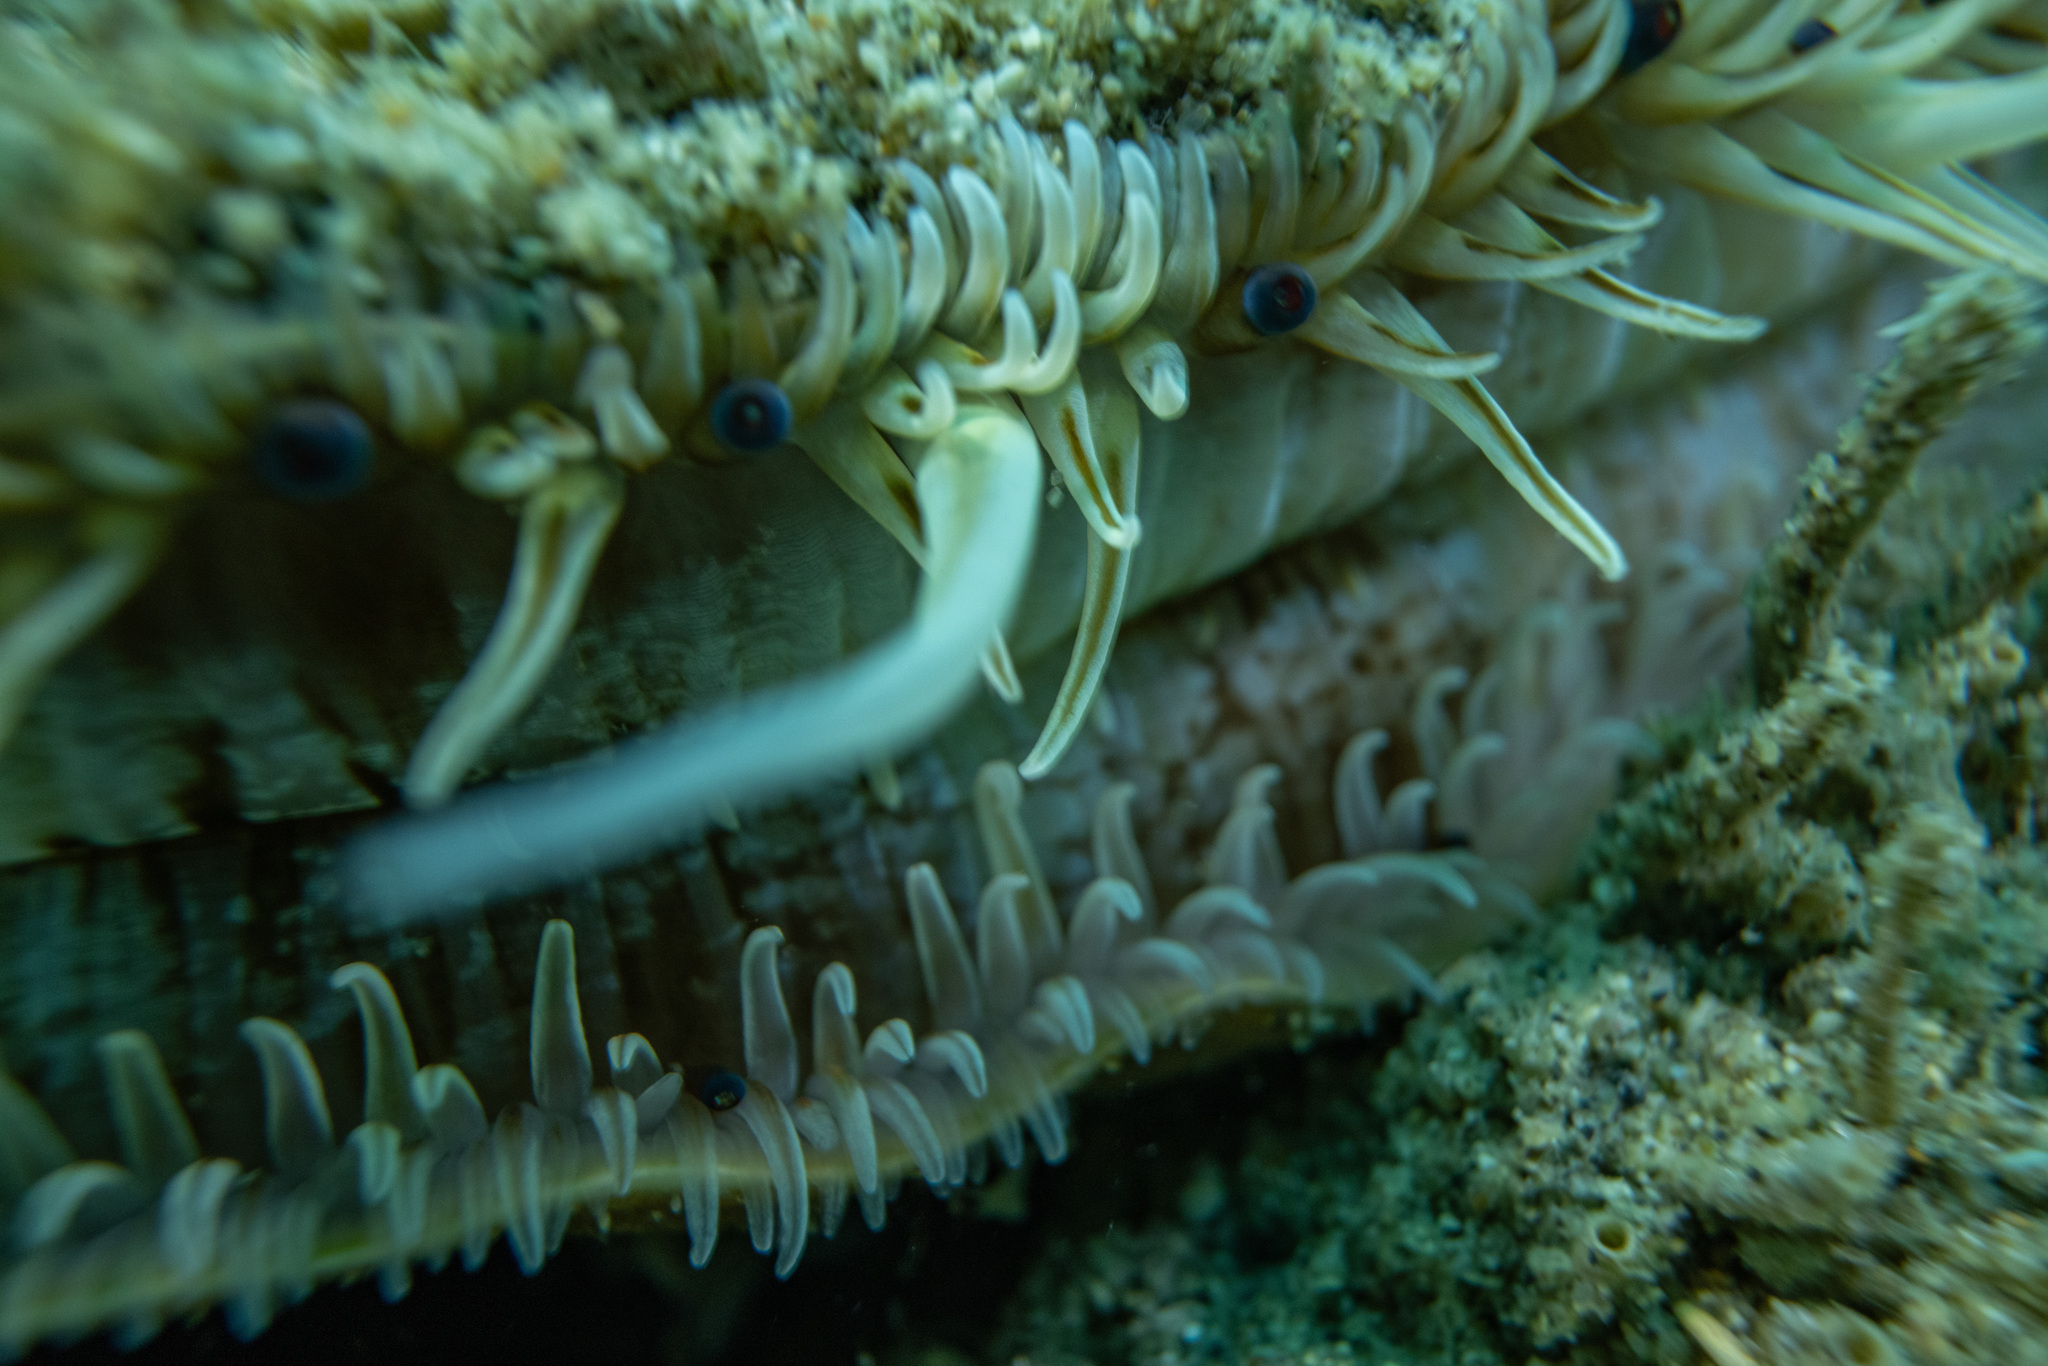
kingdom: Animalia
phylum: Mollusca
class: Bivalvia
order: Pectinida
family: Pectinidae
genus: Pecten
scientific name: Pecten novaezelandiae
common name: New zealand scallop
